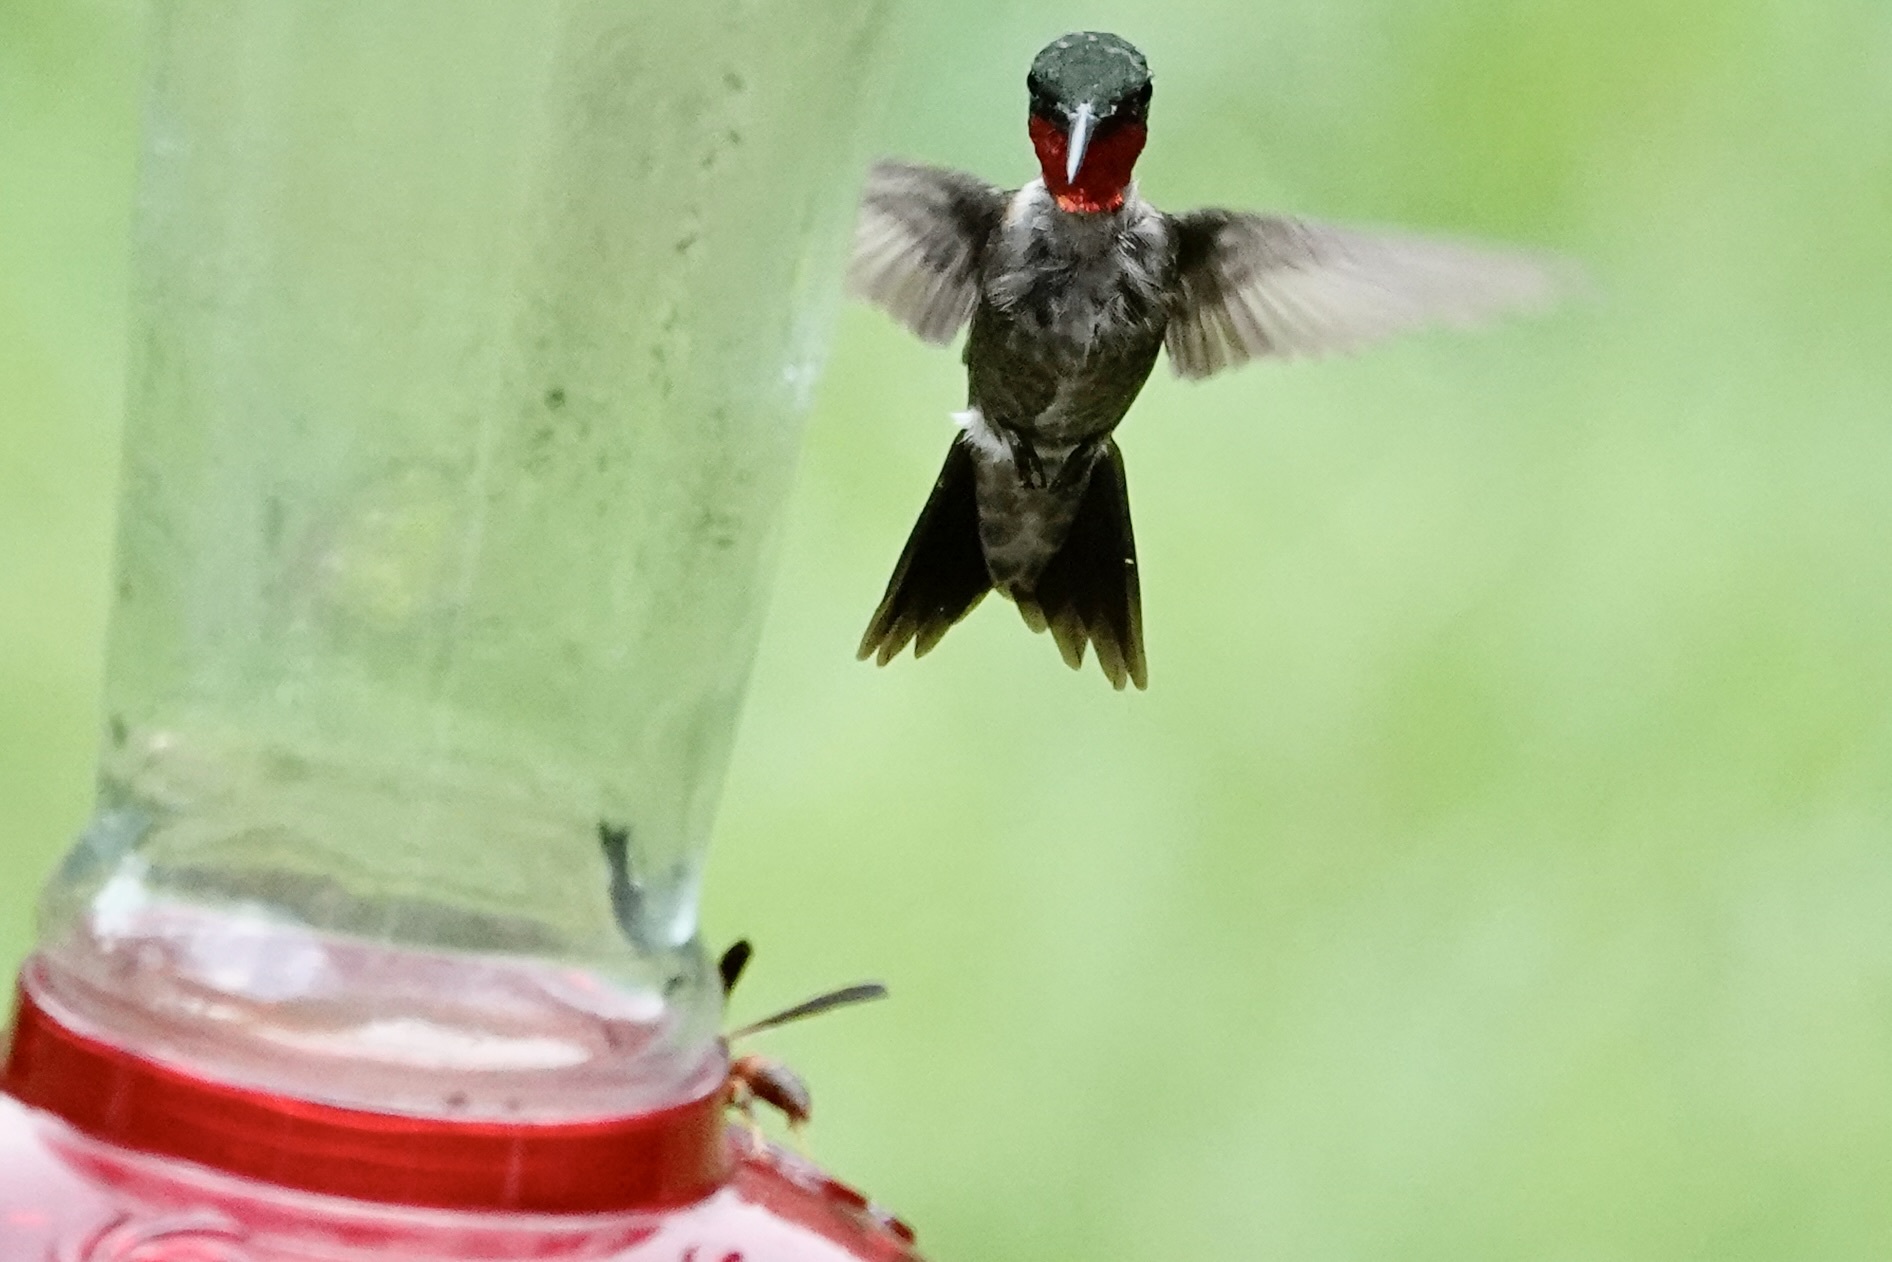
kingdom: Animalia
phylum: Chordata
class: Aves
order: Apodiformes
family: Trochilidae
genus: Archilochus
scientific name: Archilochus colubris
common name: Ruby-throated hummingbird
